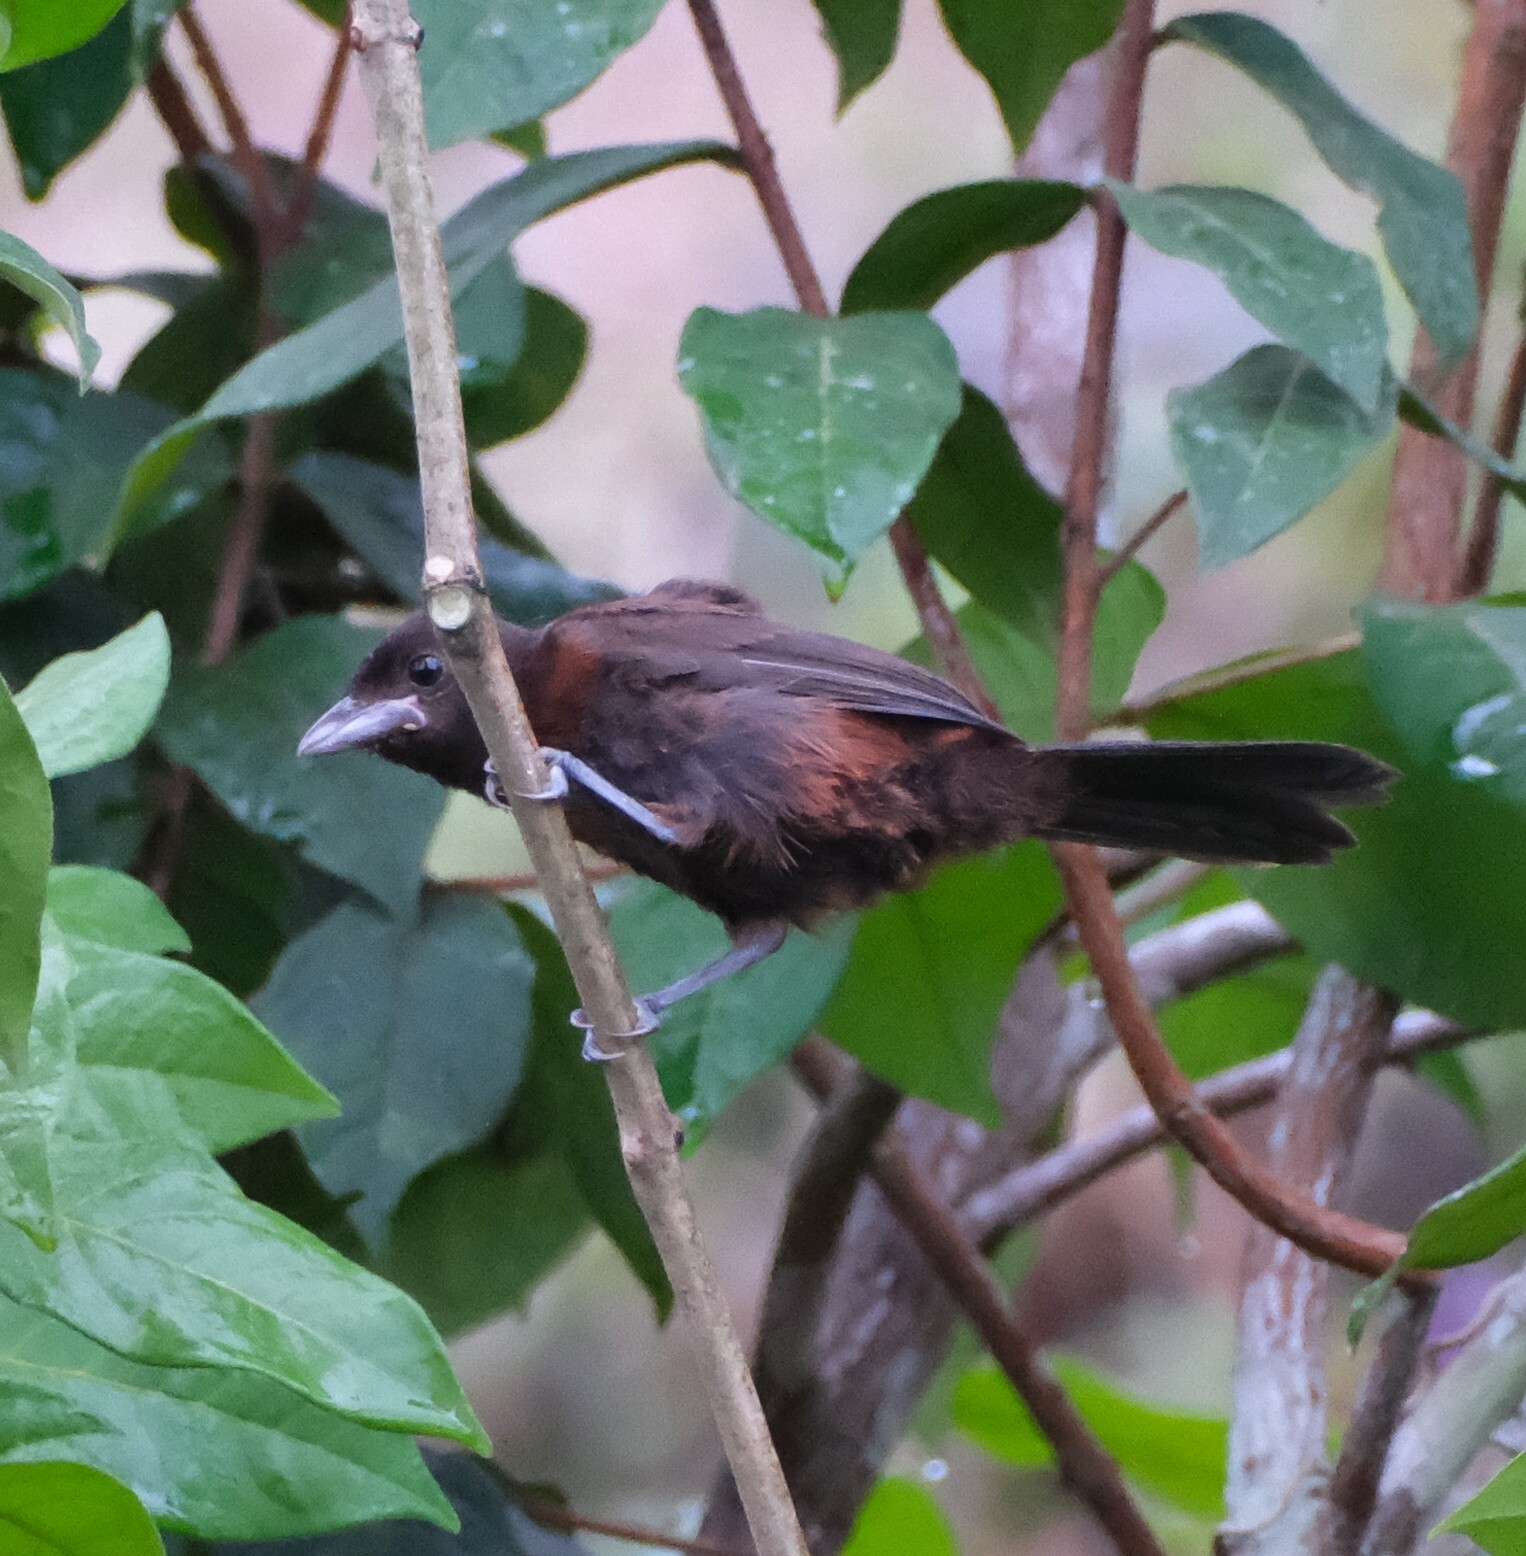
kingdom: Animalia
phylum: Chordata
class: Aves
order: Passeriformes
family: Thraupidae
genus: Ramphocelus
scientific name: Ramphocelus carbo
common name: Silver-beaked tanager
